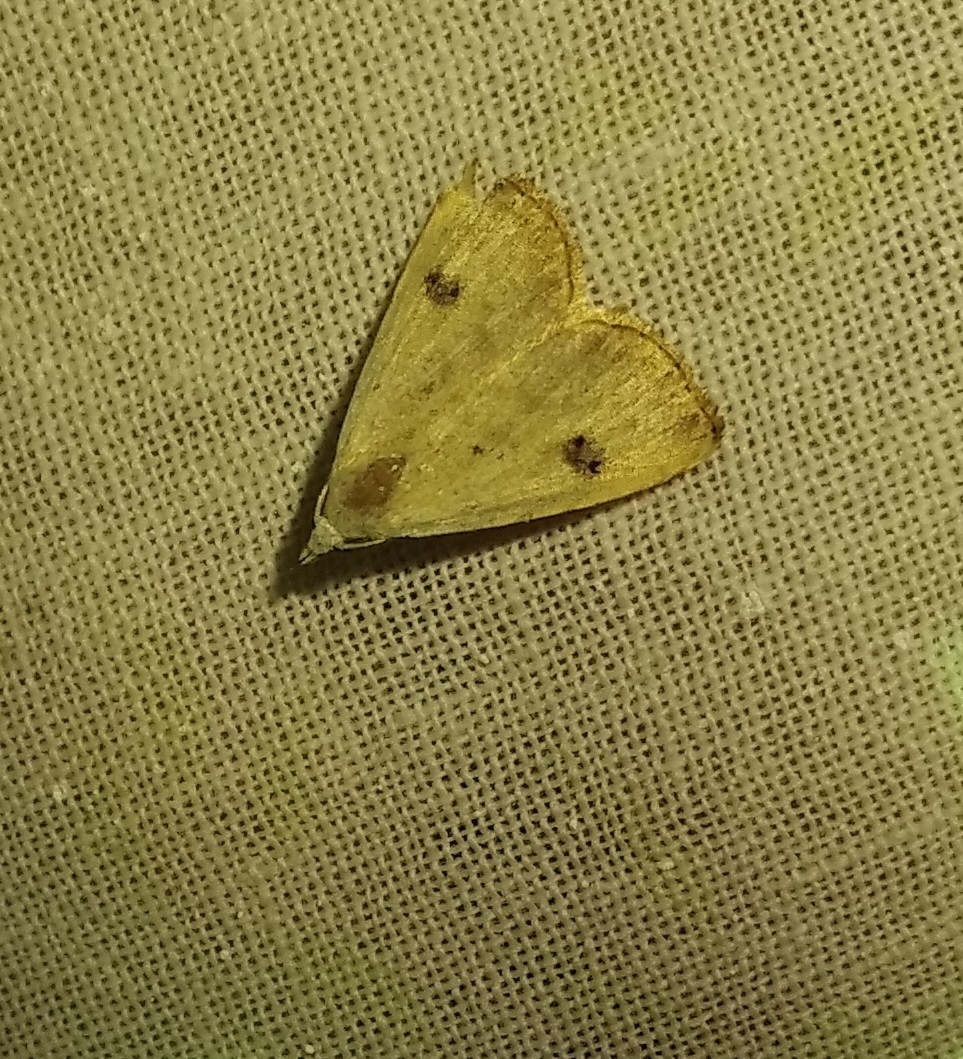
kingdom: Animalia
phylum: Arthropoda
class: Insecta
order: Lepidoptera
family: Erebidae
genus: Rivula
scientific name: Rivula sericealis
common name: Straw dot
